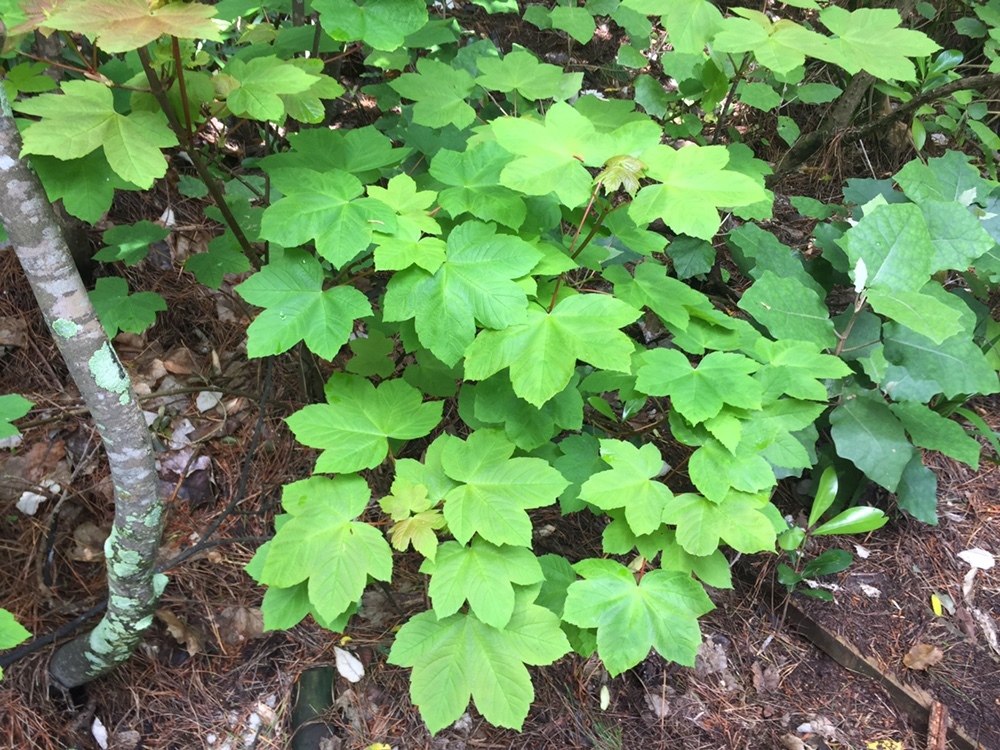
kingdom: Plantae
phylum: Tracheophyta
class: Magnoliopsida
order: Sapindales
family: Sapindaceae
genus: Acer
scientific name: Acer pseudoplatanus
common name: Sycamore
